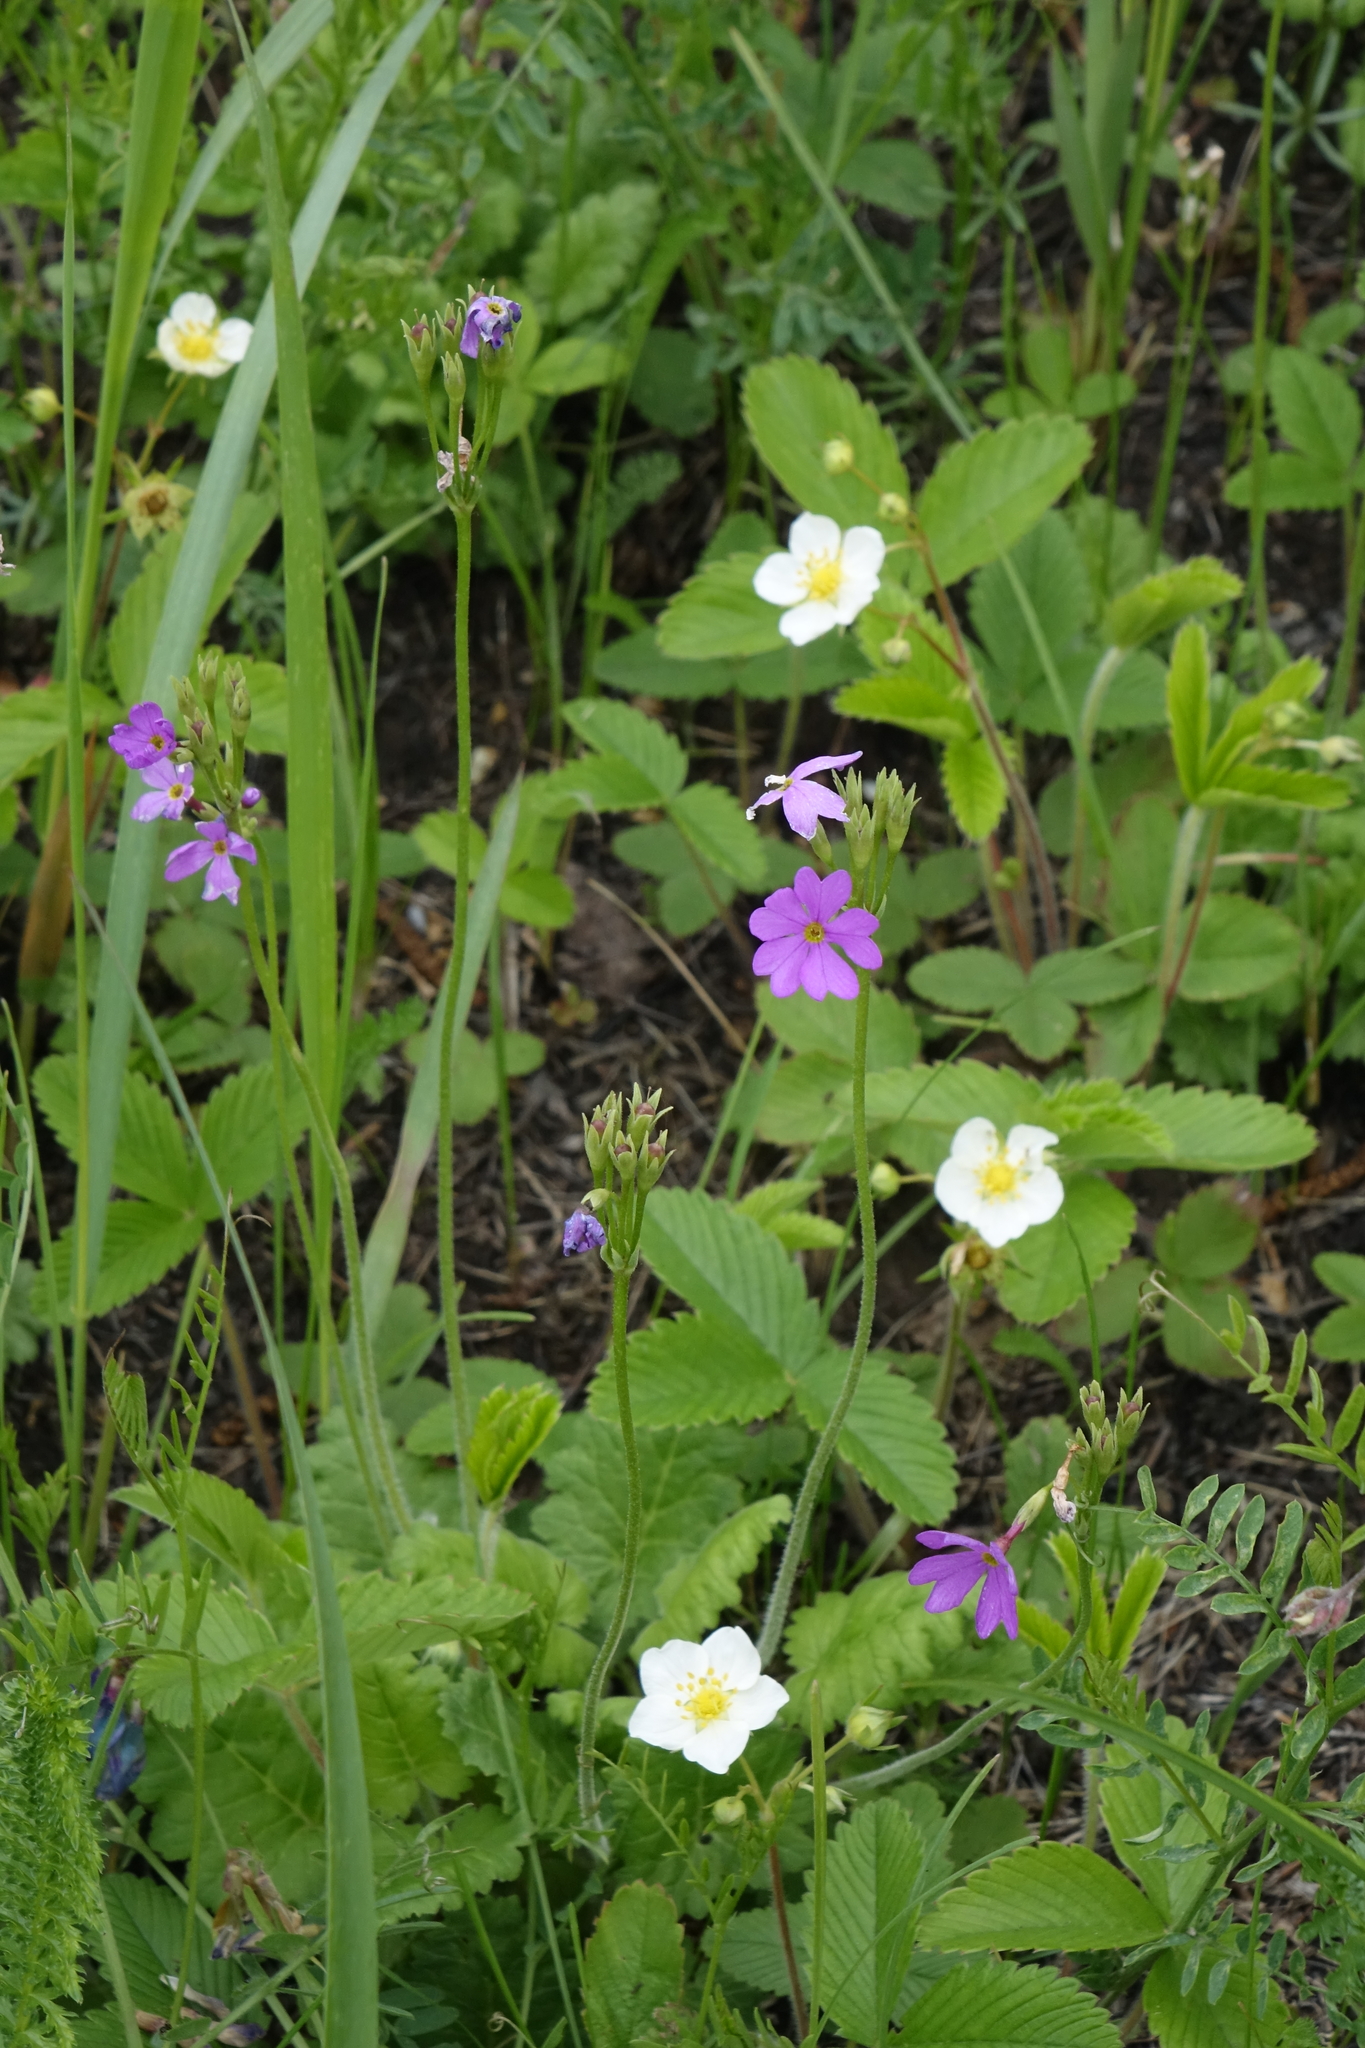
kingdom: Plantae
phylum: Tracheophyta
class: Magnoliopsida
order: Ericales
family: Primulaceae
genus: Primula
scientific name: Primula cortusoides
